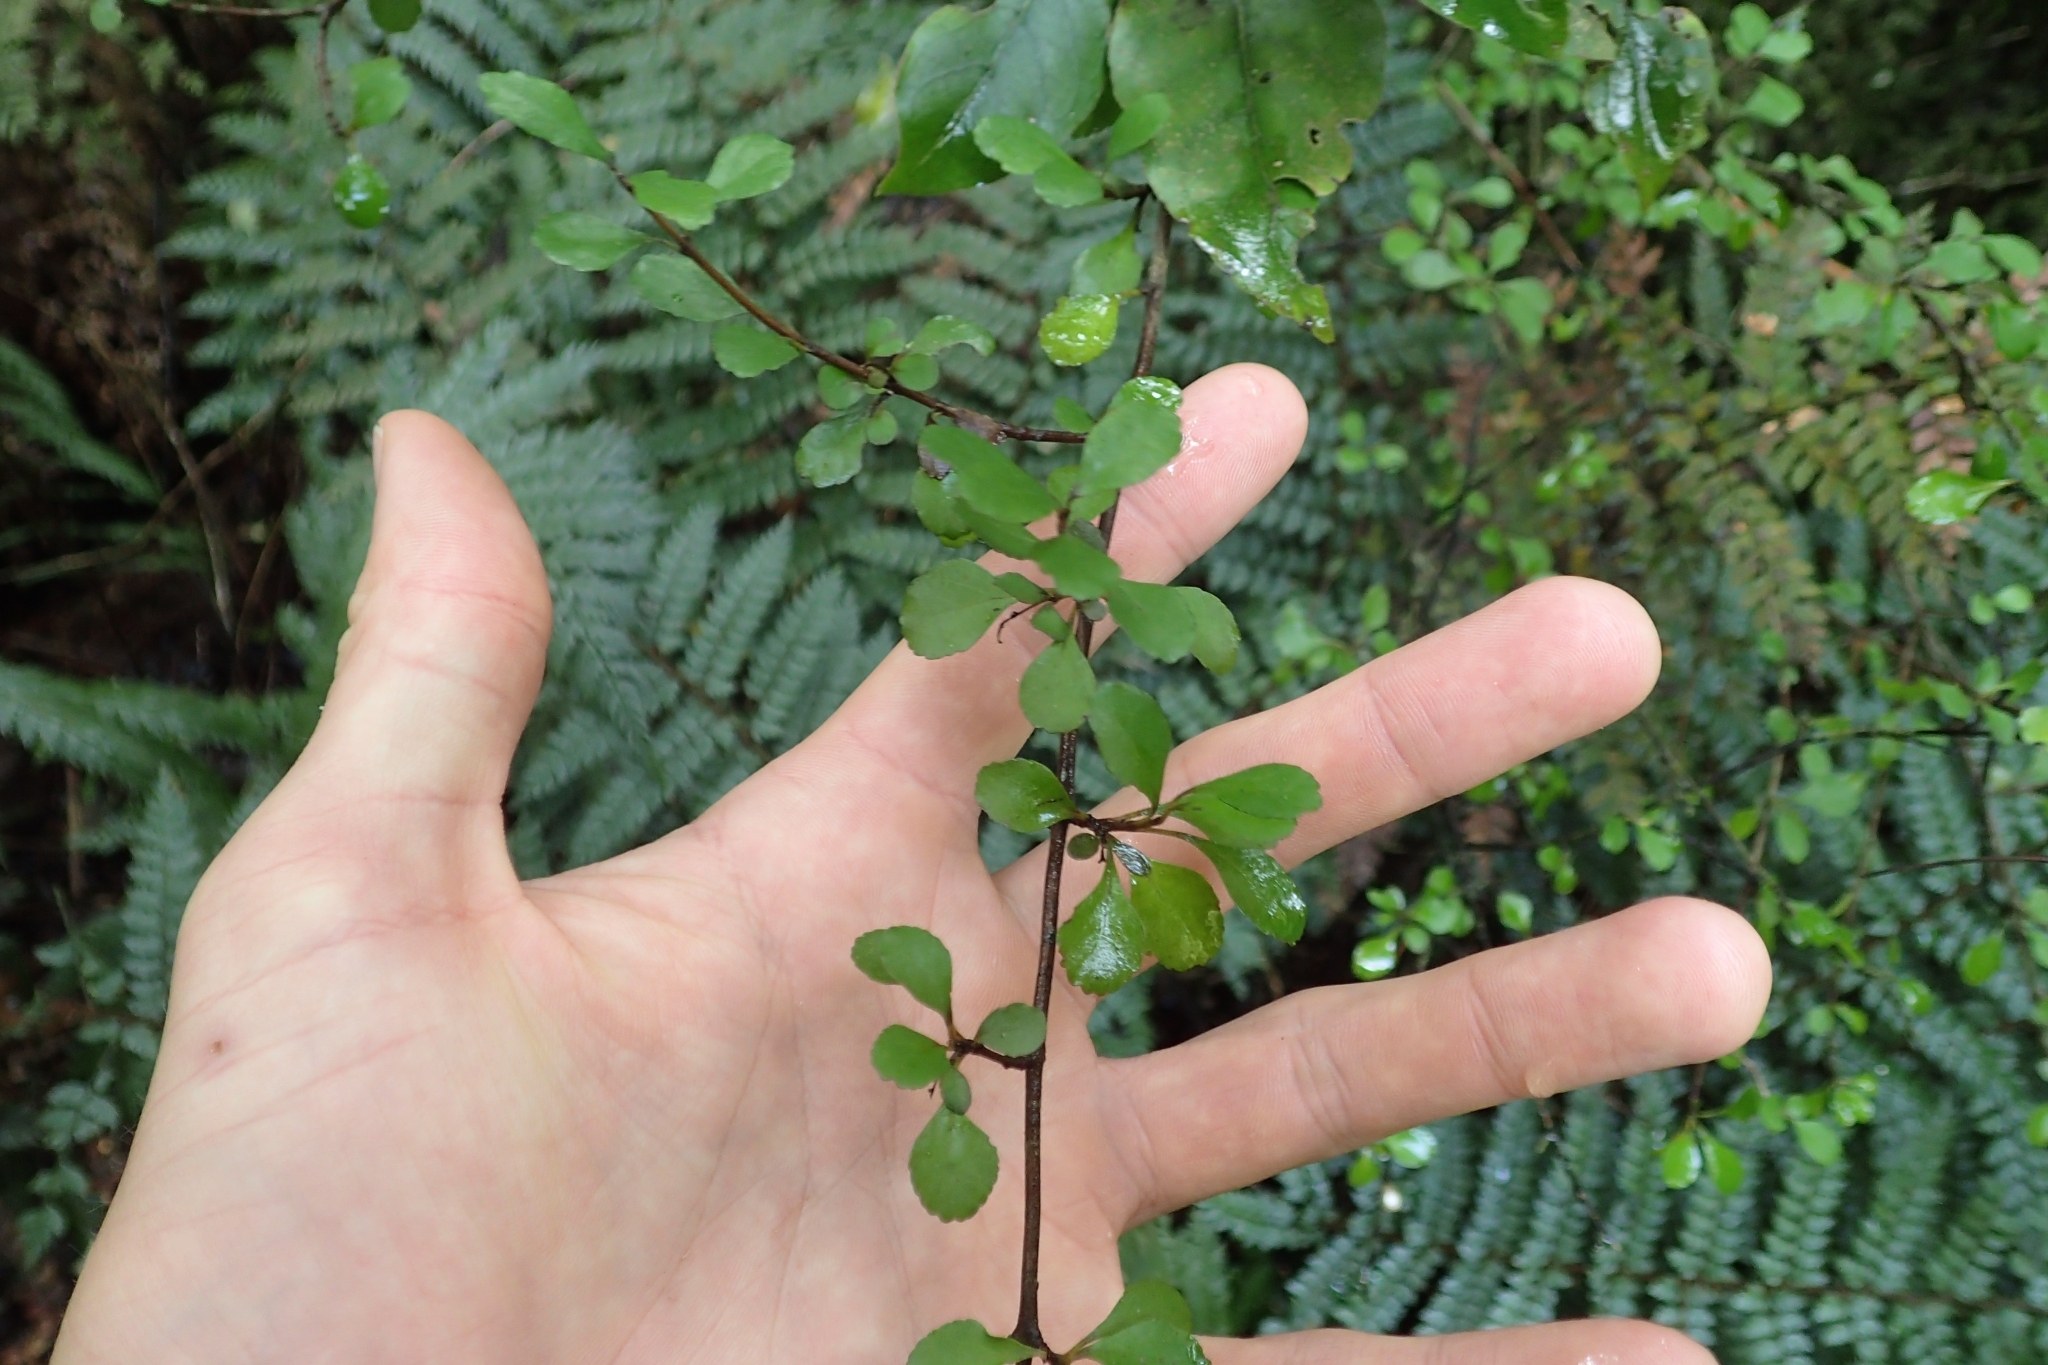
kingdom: Plantae
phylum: Tracheophyta
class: Magnoliopsida
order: Apiales
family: Araliaceae
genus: Raukaua
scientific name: Raukaua anomalus
